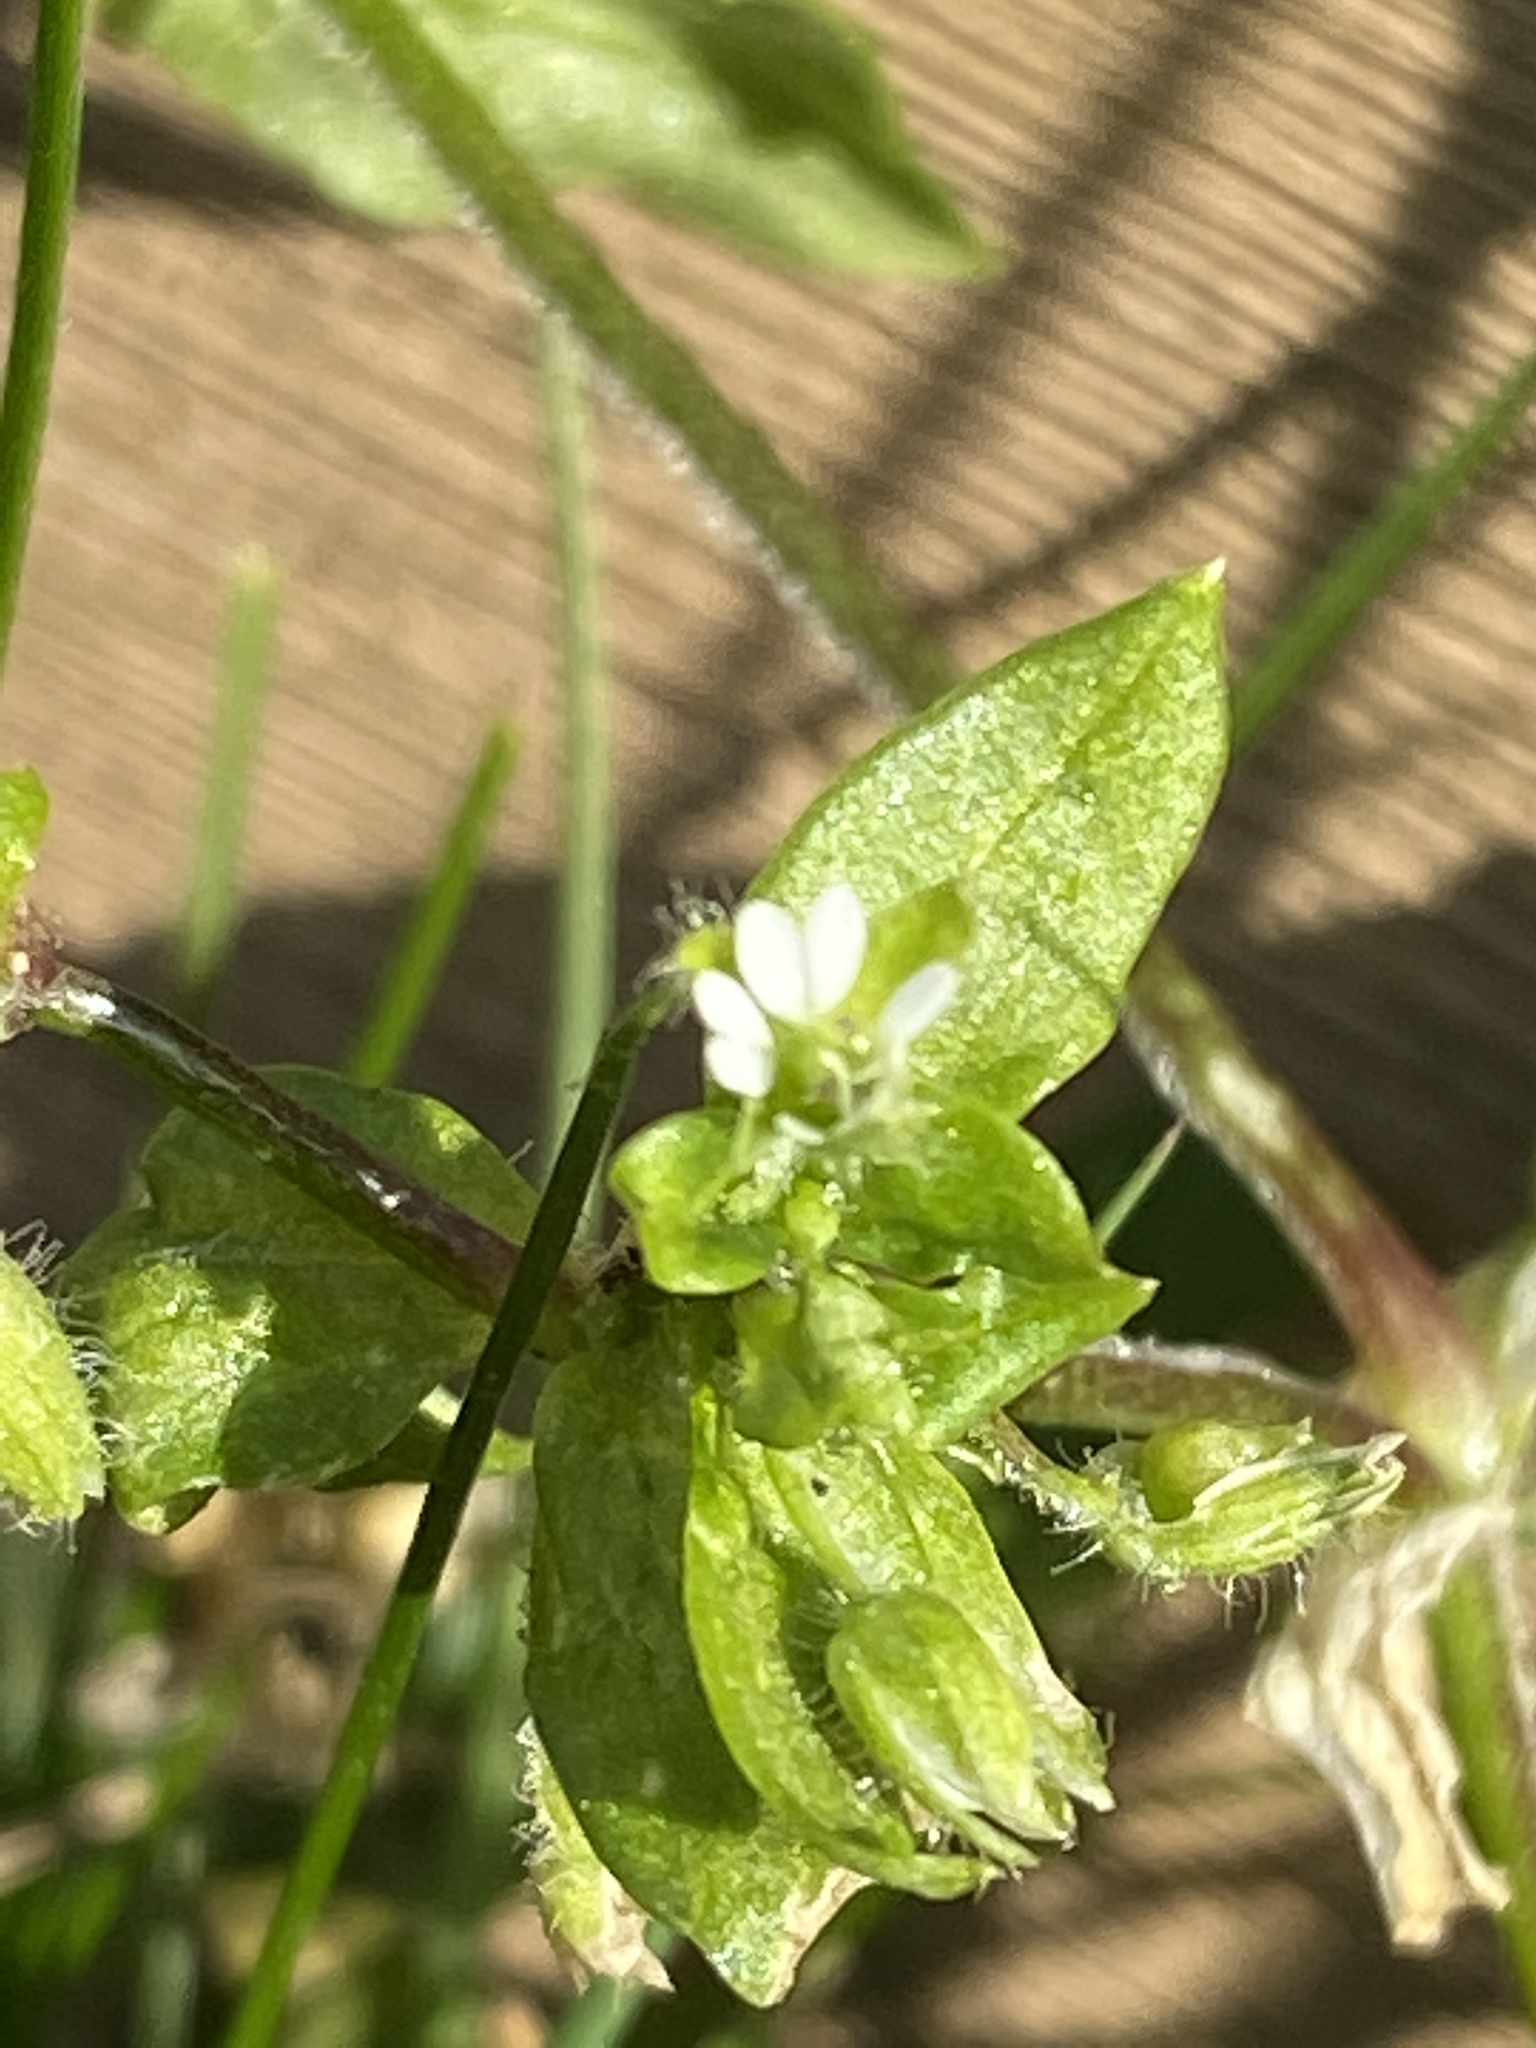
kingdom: Plantae
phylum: Tracheophyta
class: Magnoliopsida
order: Caryophyllales
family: Caryophyllaceae
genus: Stellaria
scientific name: Stellaria media
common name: Common chickweed
